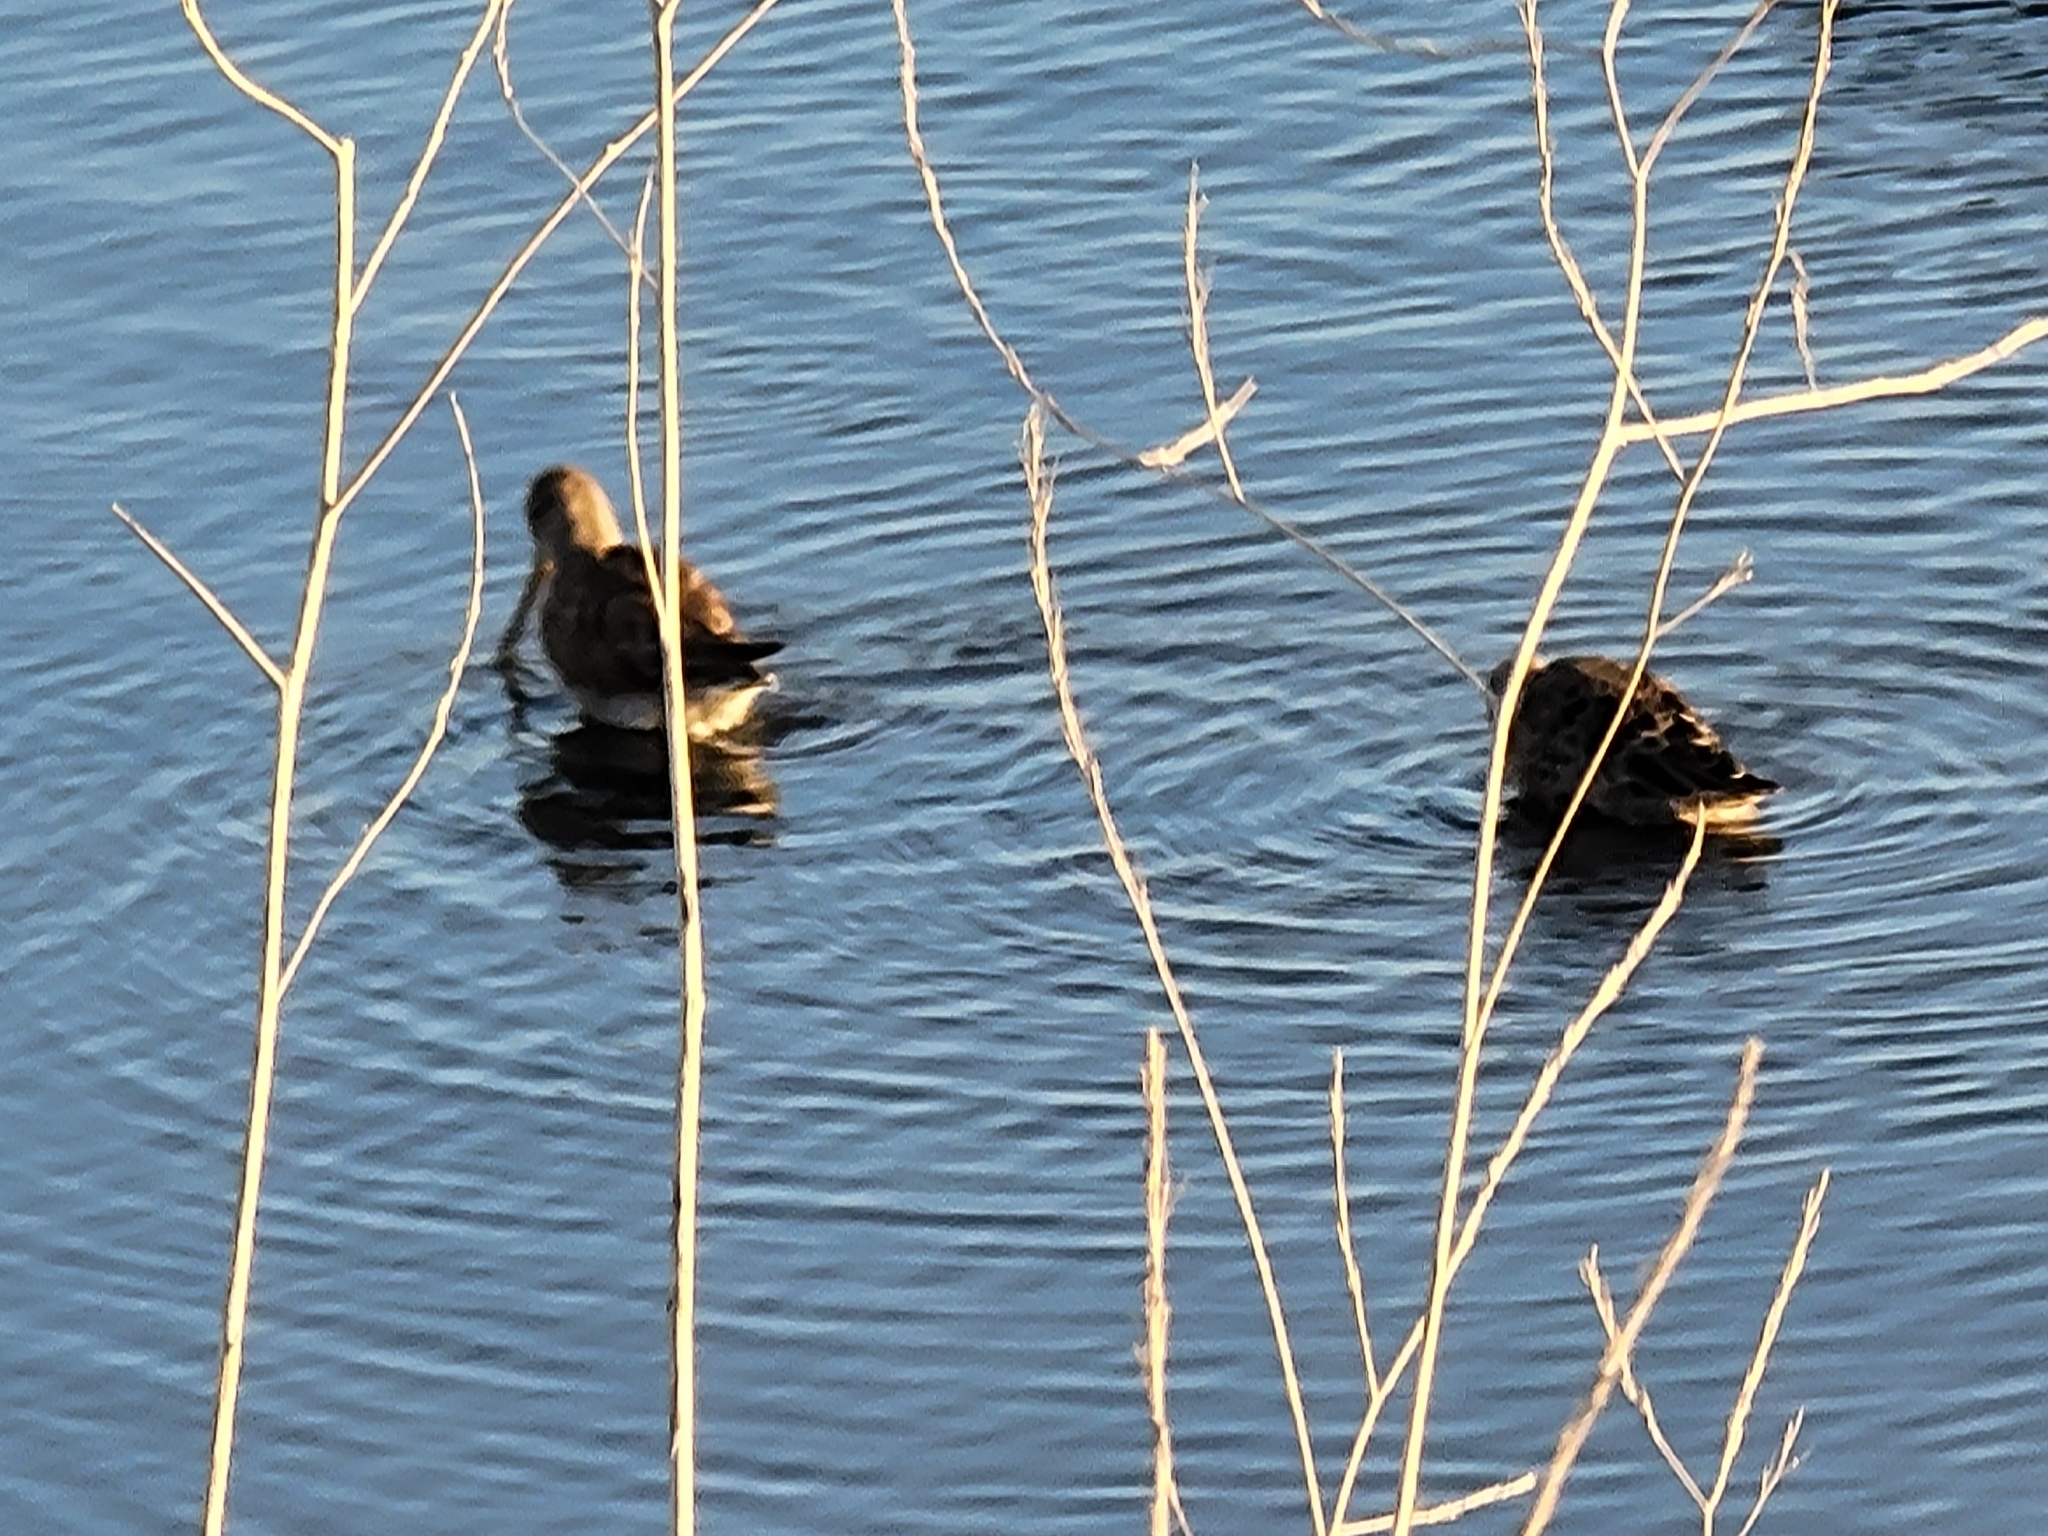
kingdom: Animalia
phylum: Chordata
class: Aves
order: Charadriiformes
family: Scolopacidae
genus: Limnodromus
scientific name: Limnodromus
